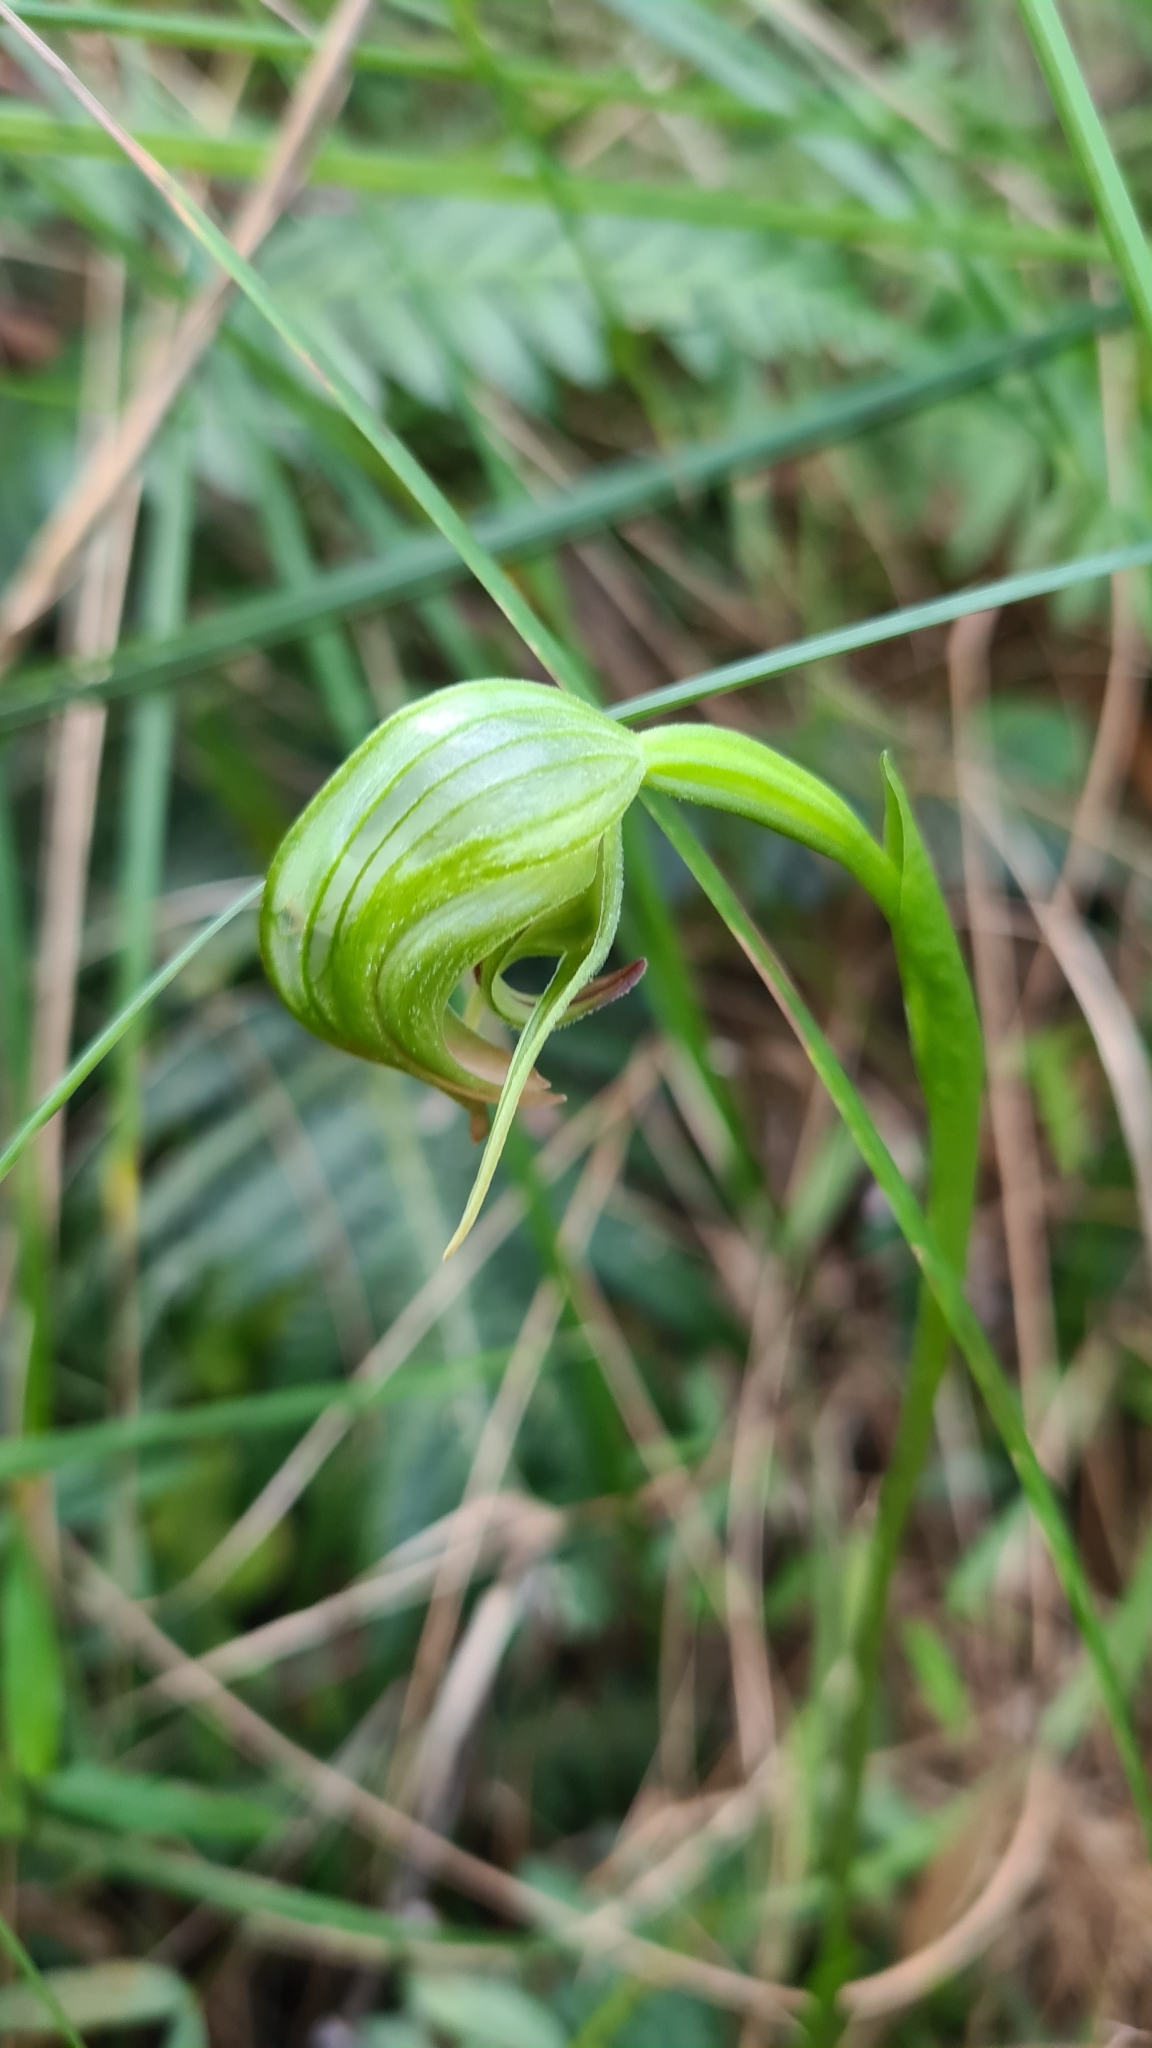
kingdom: Plantae
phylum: Tracheophyta
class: Liliopsida
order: Asparagales
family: Orchidaceae
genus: Pterostylis
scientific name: Pterostylis nutans
